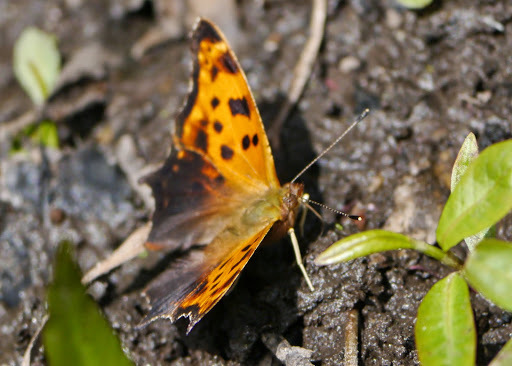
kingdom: Animalia
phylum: Arthropoda
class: Insecta
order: Lepidoptera
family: Nymphalidae
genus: Polygonia
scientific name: Polygonia comma
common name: Eastern comma
